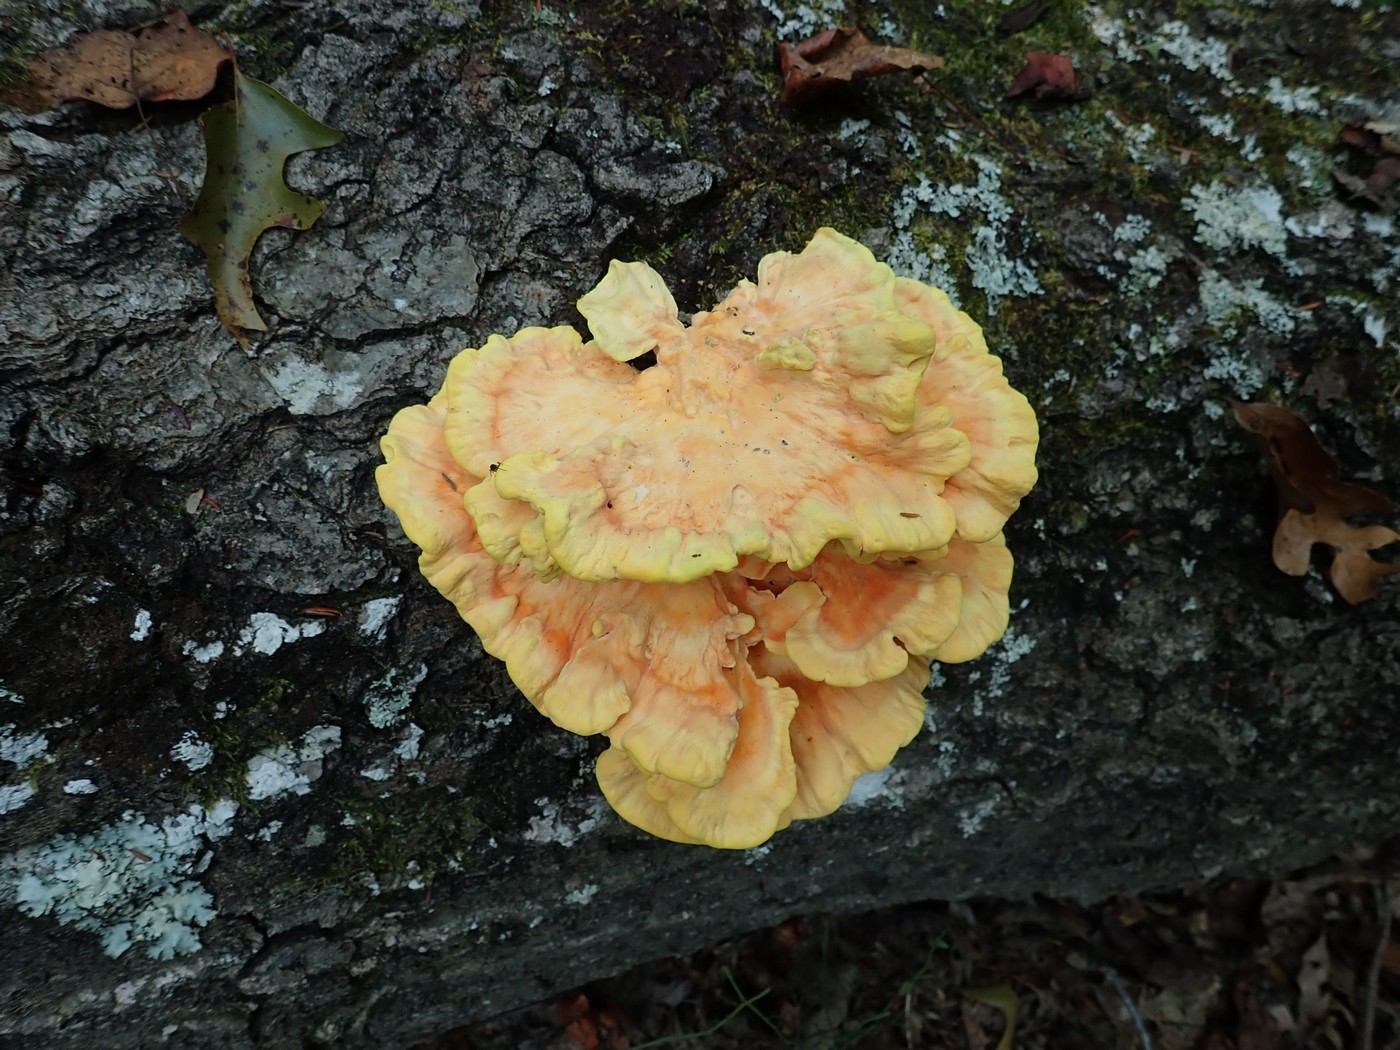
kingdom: Fungi
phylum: Basidiomycota
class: Agaricomycetes
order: Polyporales
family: Laetiporaceae
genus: Laetiporus
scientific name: Laetiporus sulphureus
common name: Chicken of the woods
